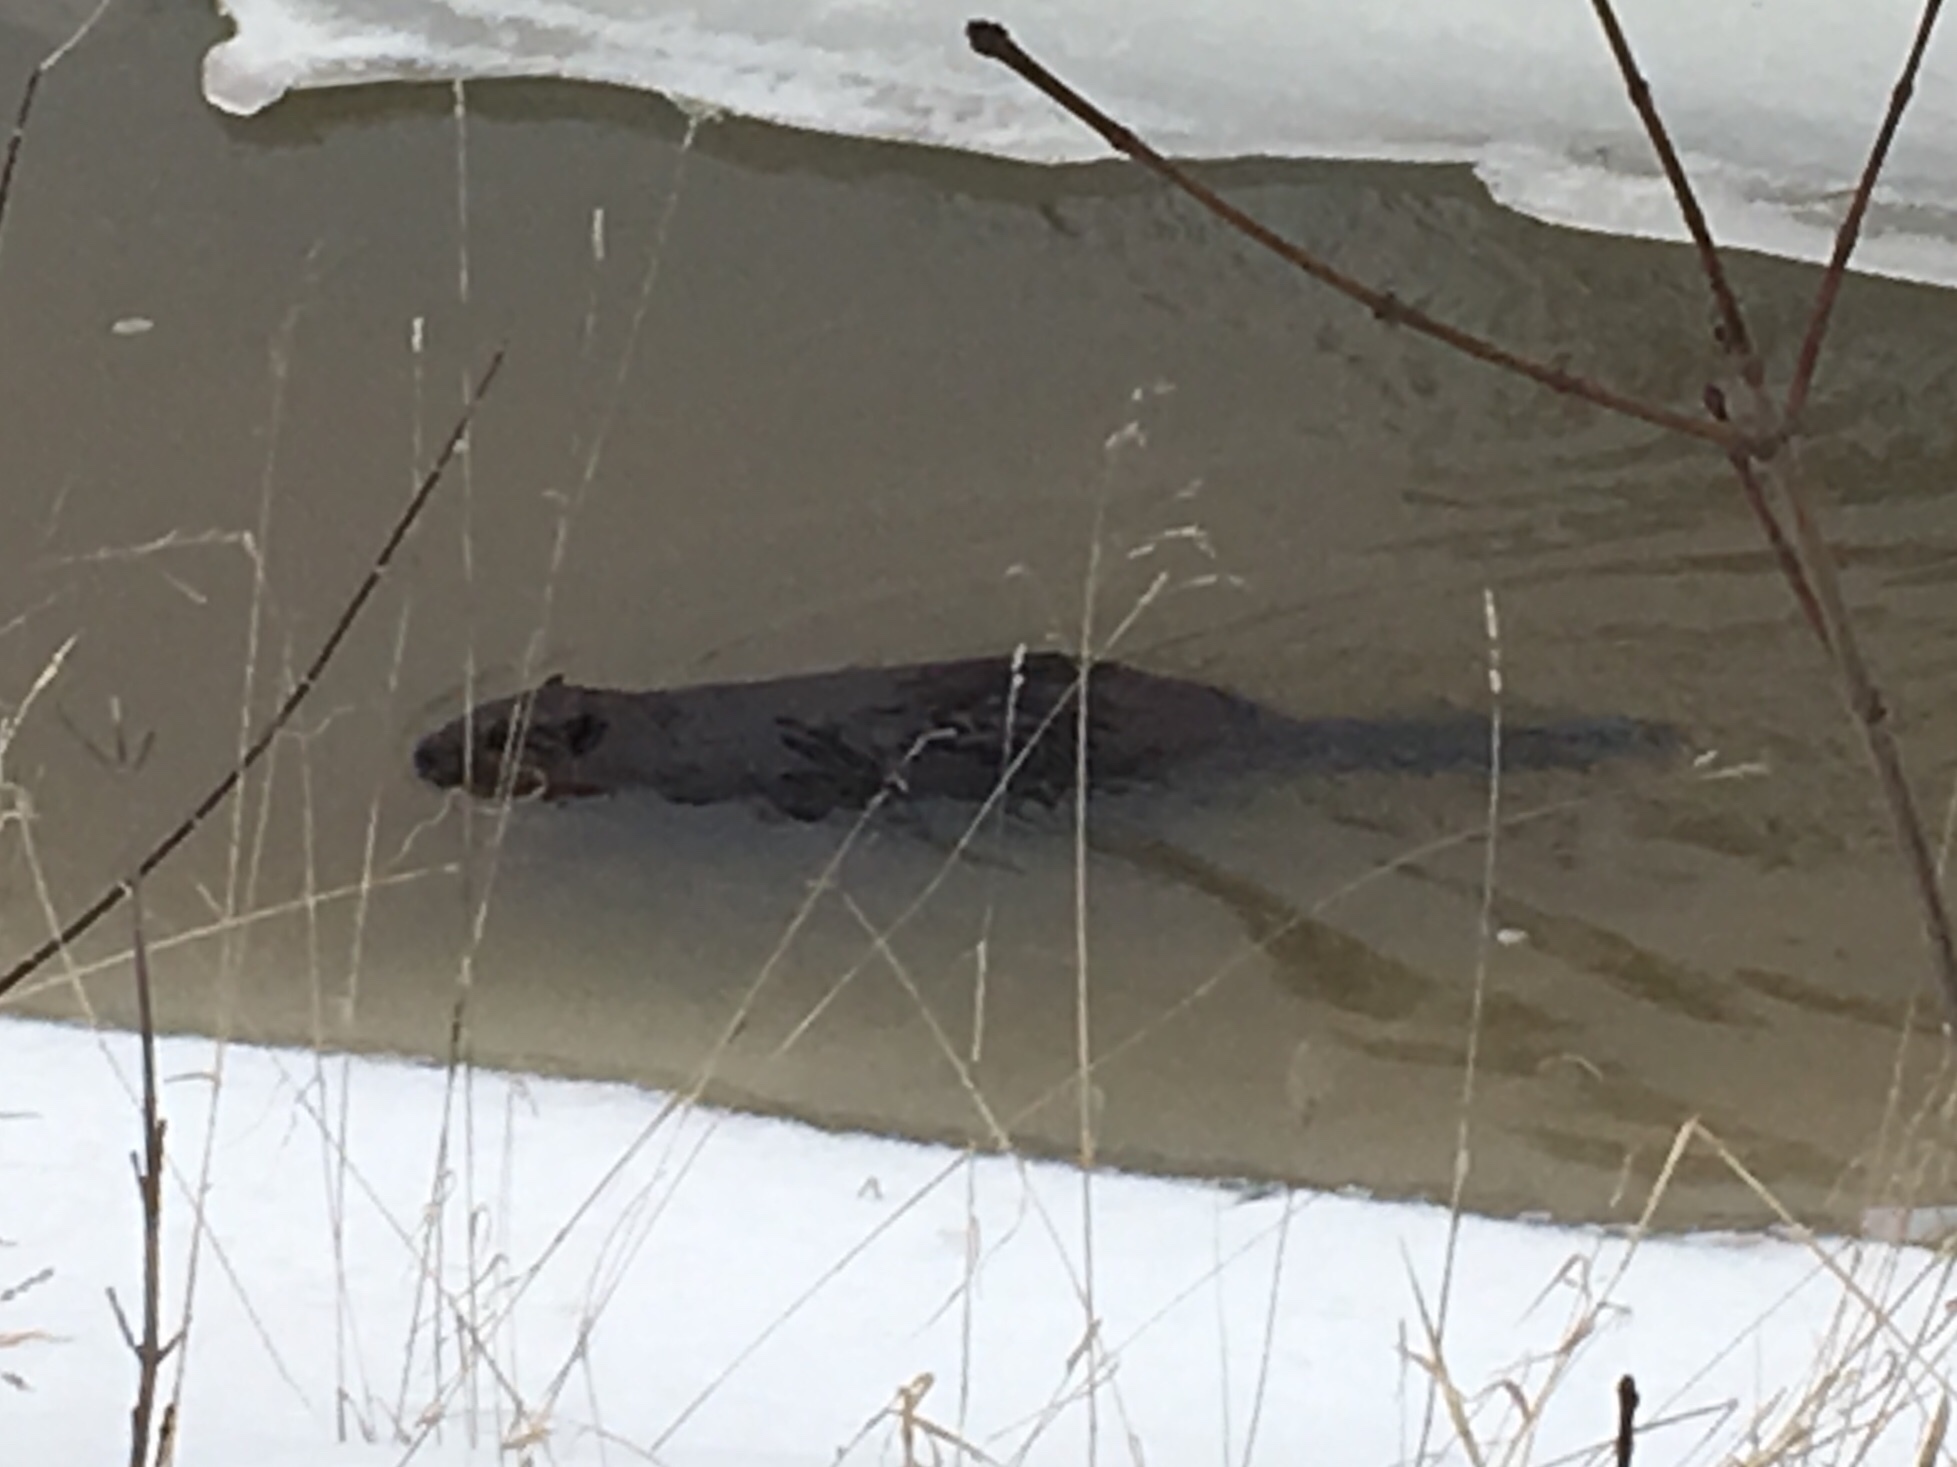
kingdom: Animalia
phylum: Chordata
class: Mammalia
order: Rodentia
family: Castoridae
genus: Castor
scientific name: Castor canadensis
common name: American beaver
